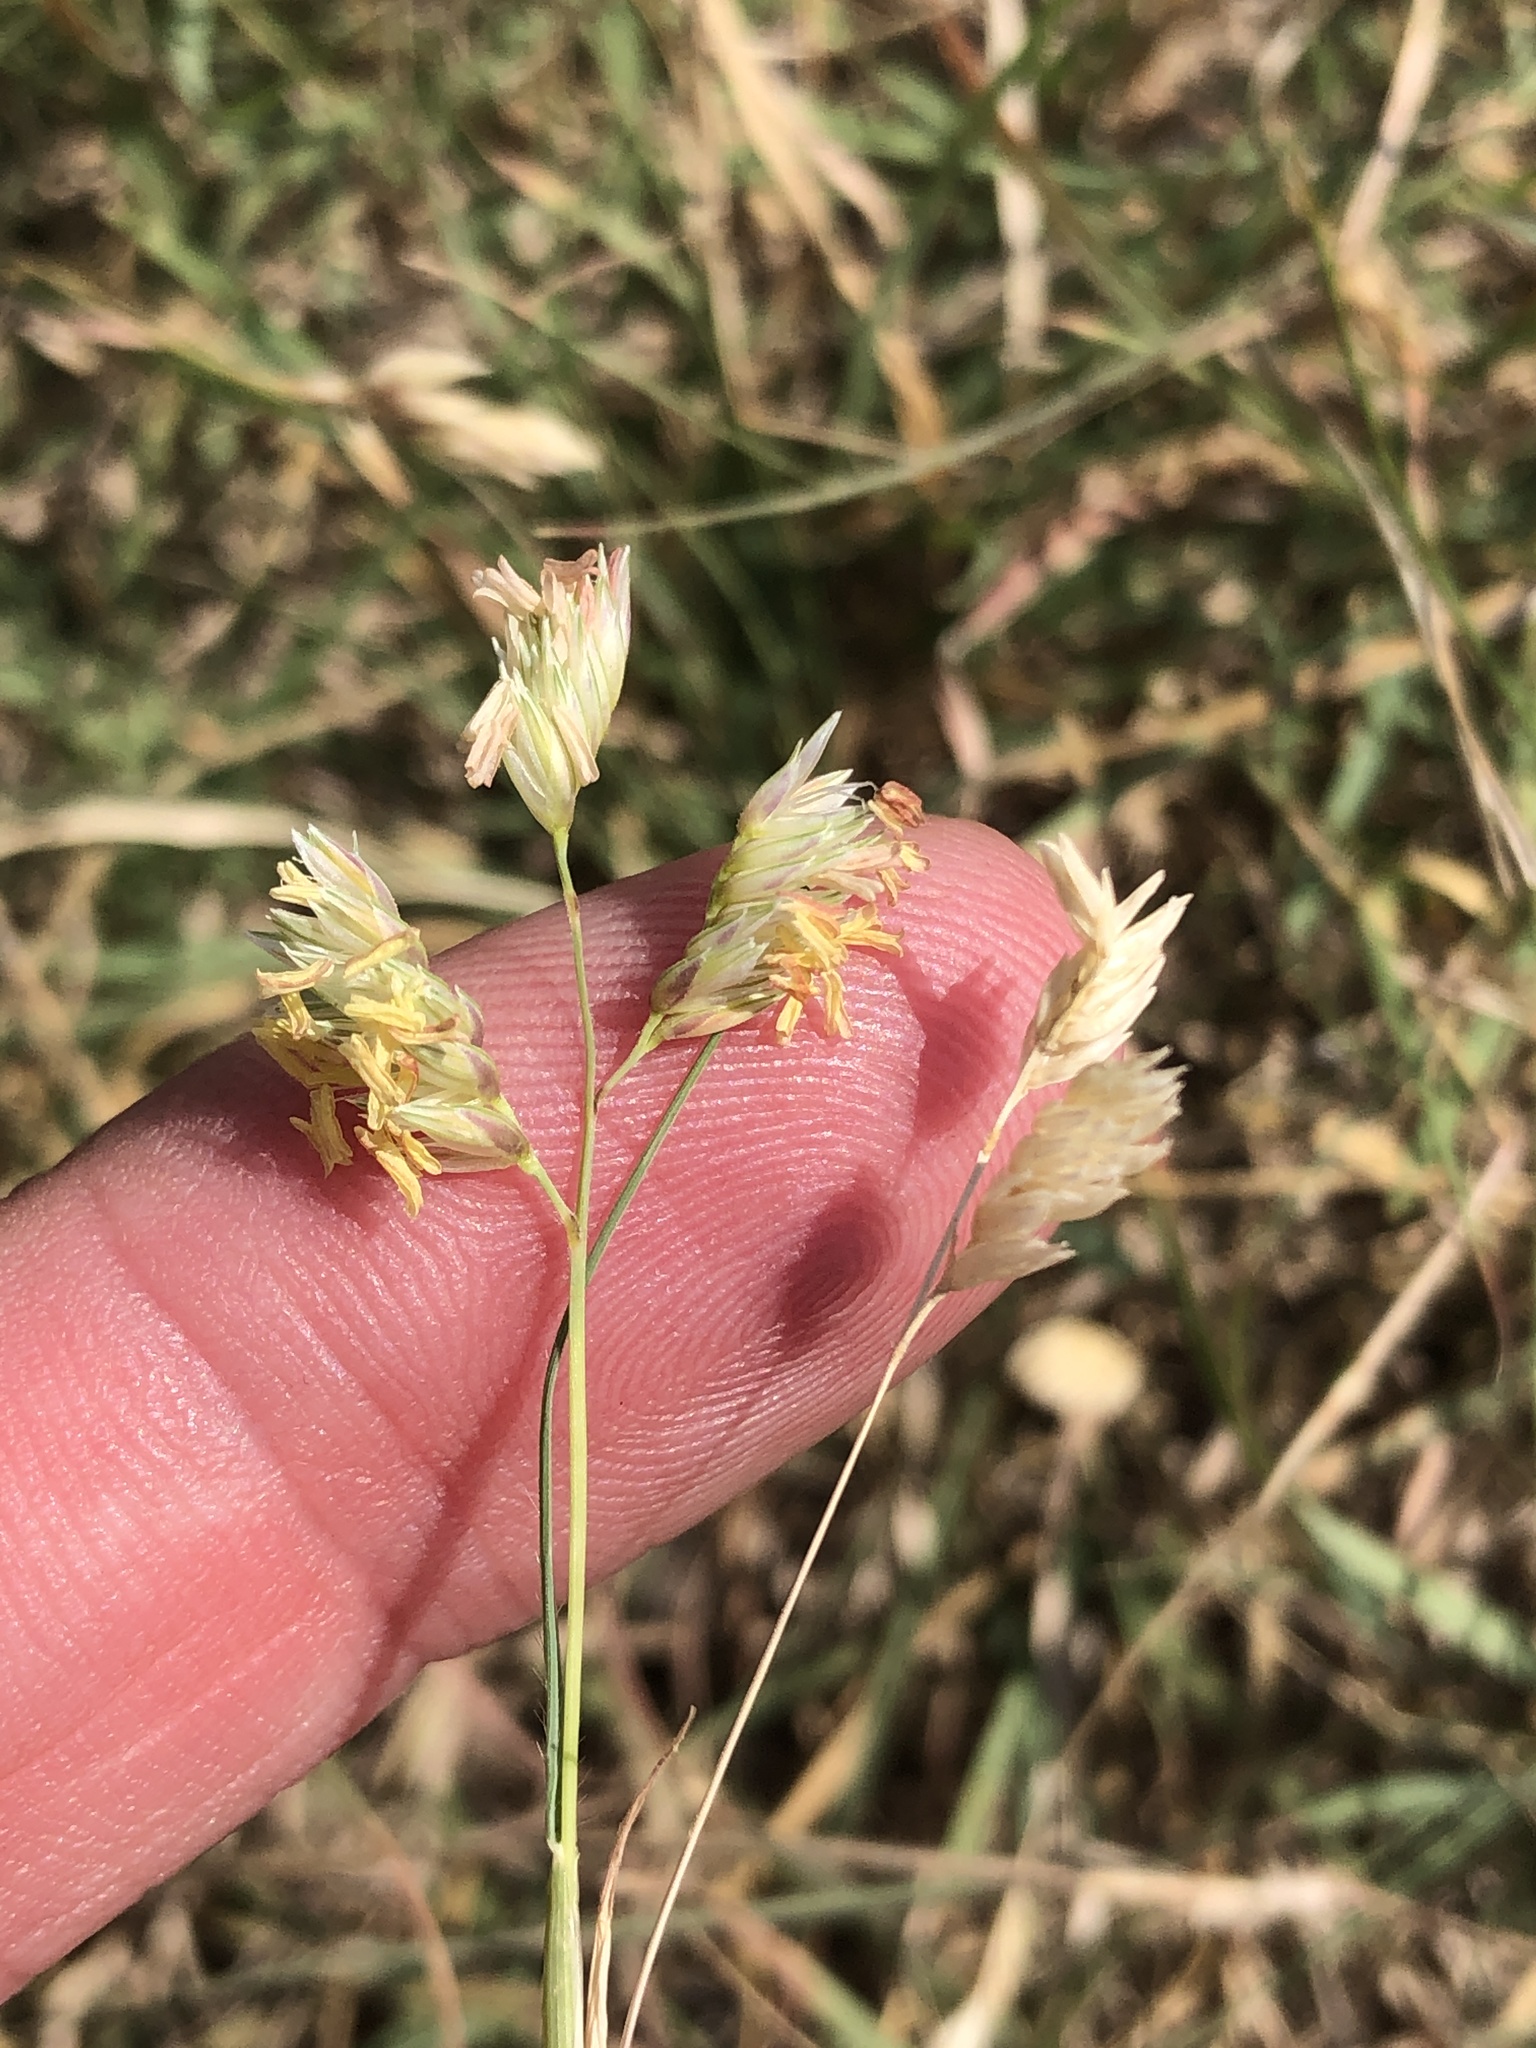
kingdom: Plantae
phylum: Tracheophyta
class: Liliopsida
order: Poales
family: Poaceae
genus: Bouteloua
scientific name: Bouteloua dactyloides
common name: Buffalo grass
